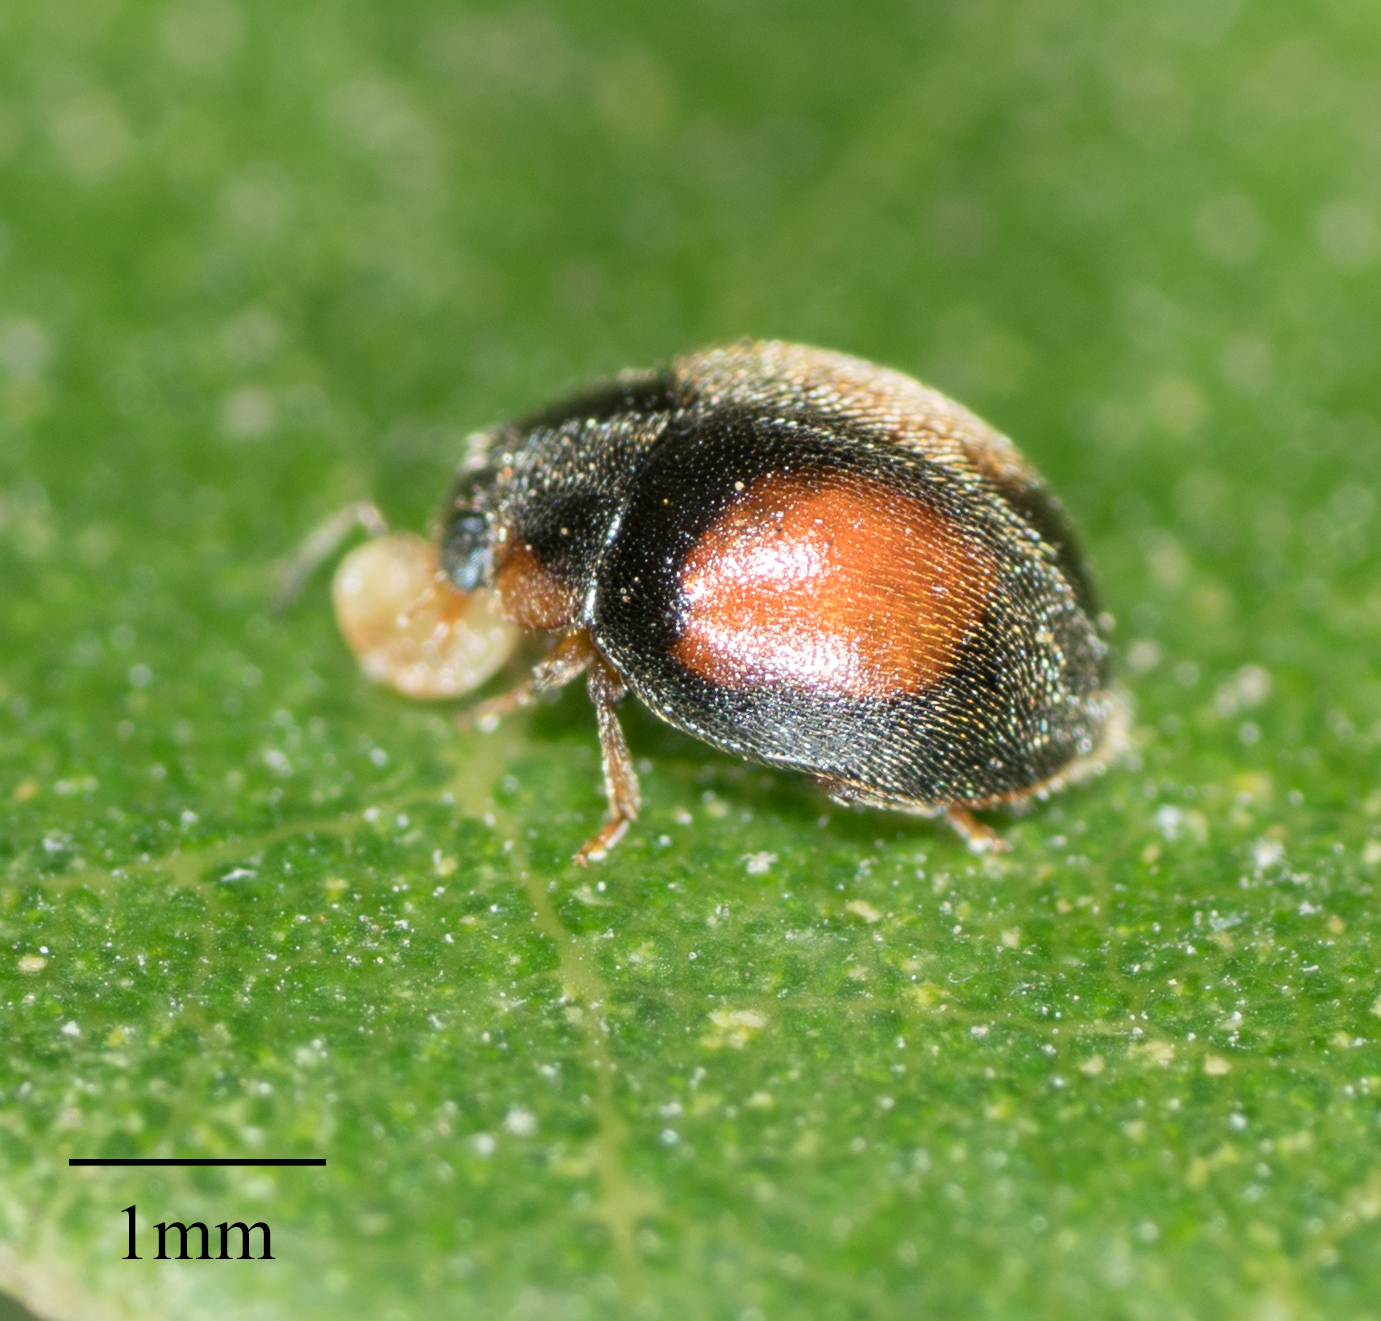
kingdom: Animalia
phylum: Arthropoda
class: Insecta
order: Coleoptera
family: Coccinellidae
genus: Scymnus
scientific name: Scymnus pacificus
